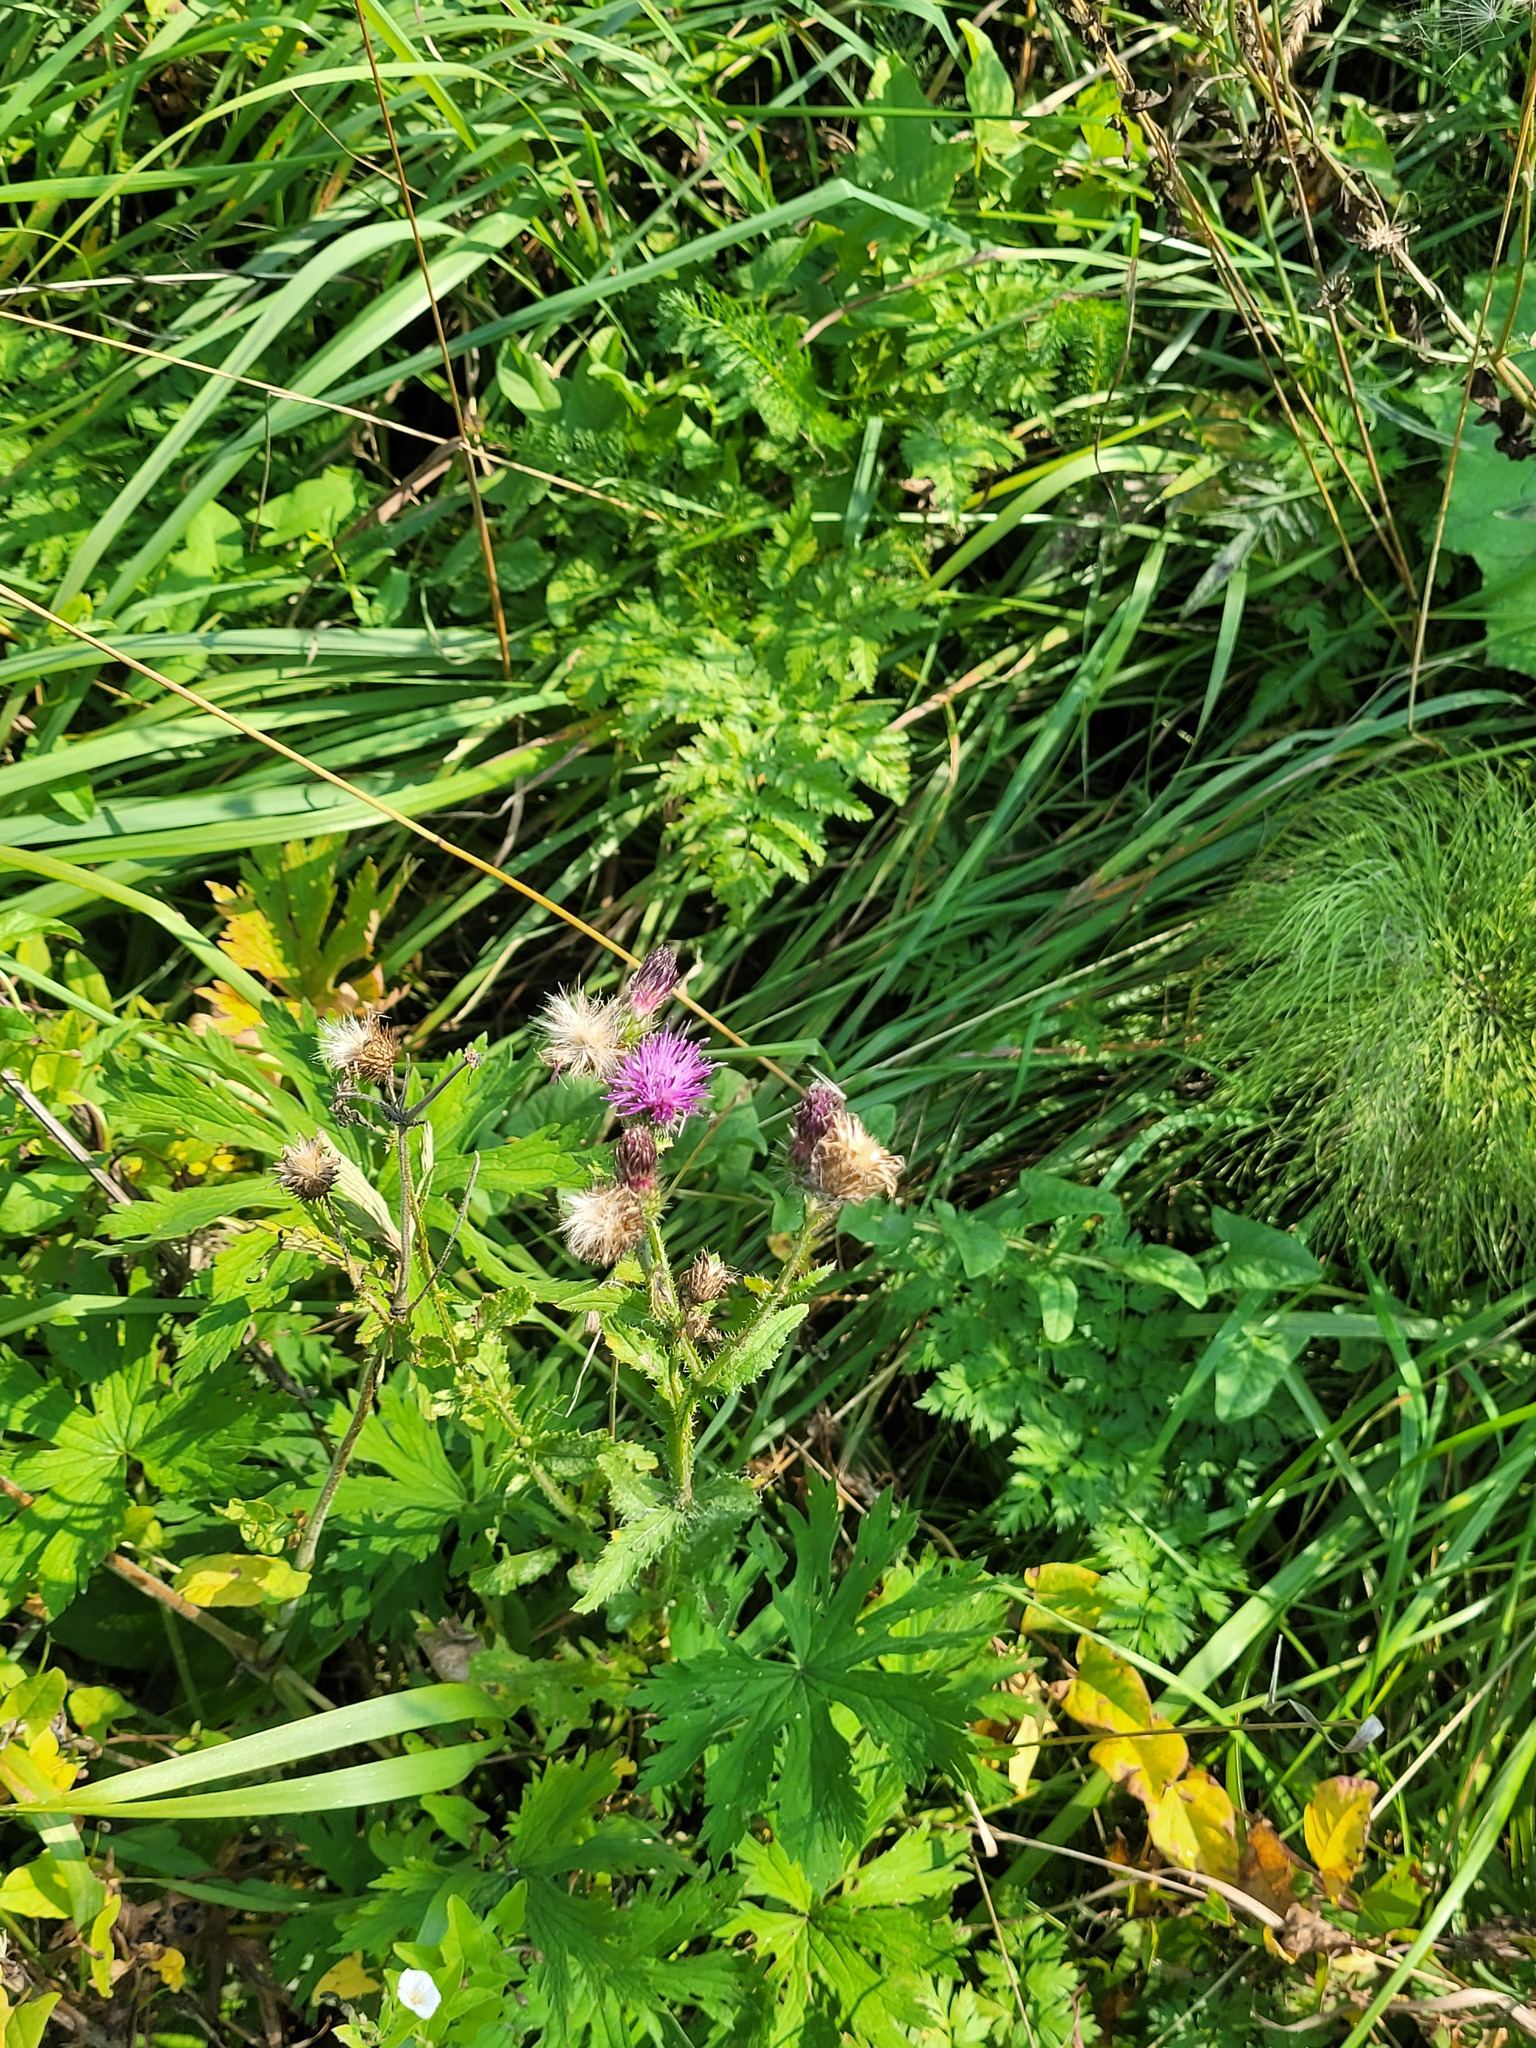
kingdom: Plantae
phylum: Tracheophyta
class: Magnoliopsida
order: Asterales
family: Asteraceae
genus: Carduus
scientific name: Carduus crispus
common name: Welted thistle
